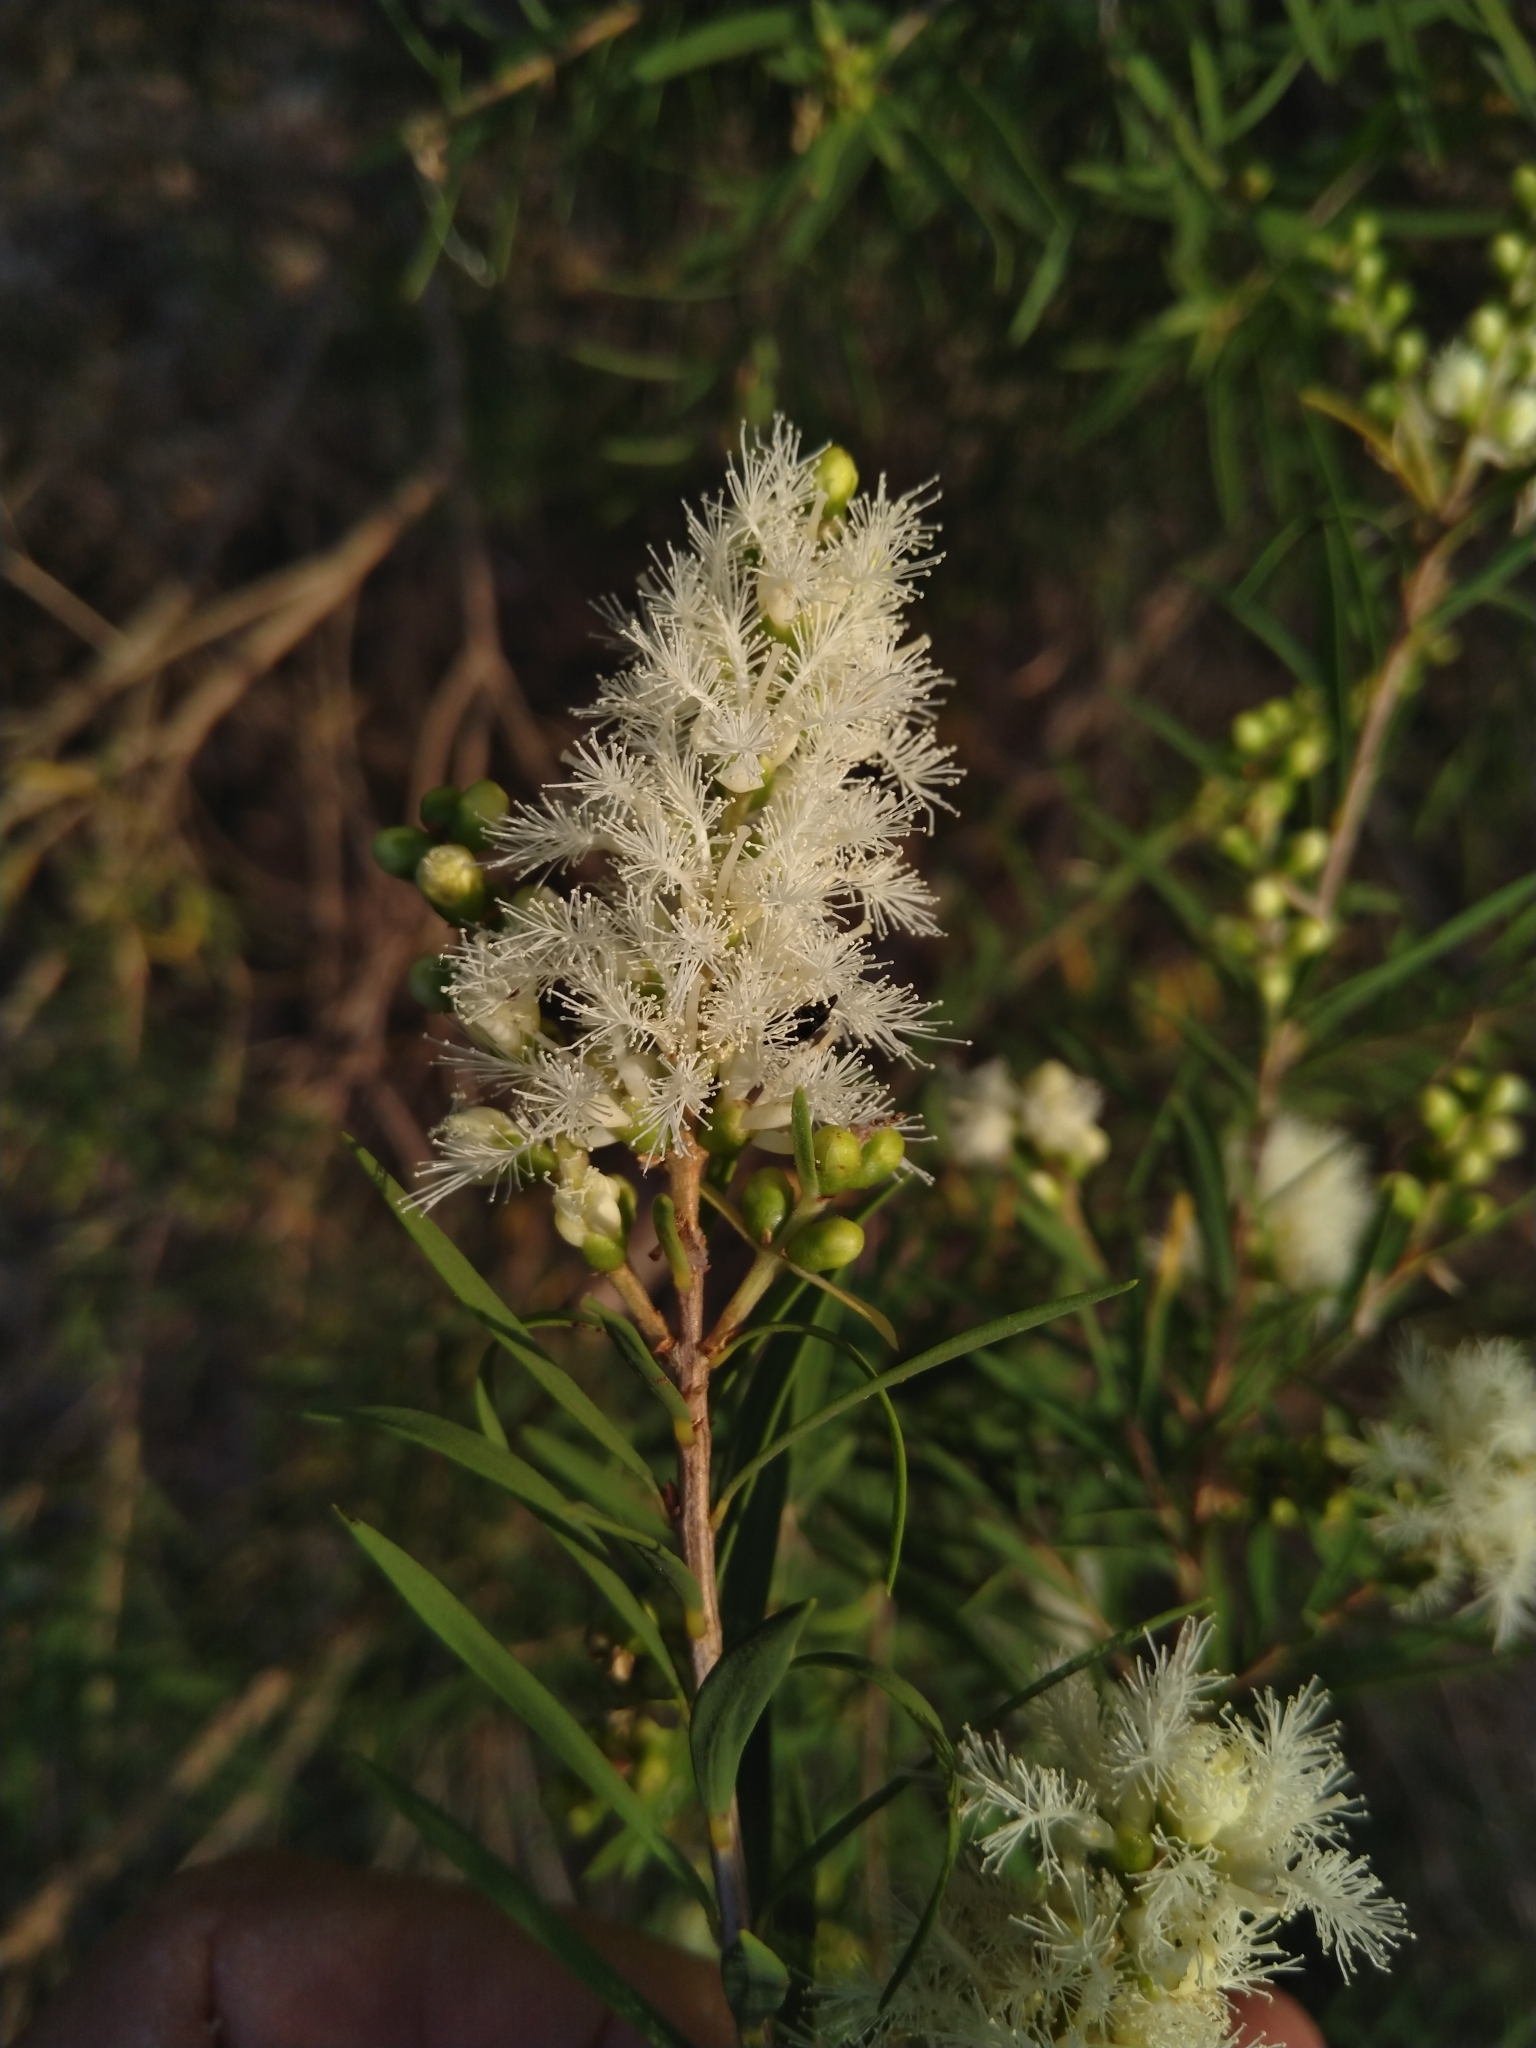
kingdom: Plantae
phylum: Tracheophyta
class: Magnoliopsida
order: Myrtales
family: Myrtaceae
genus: Melaleuca
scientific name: Melaleuca trichostachya
